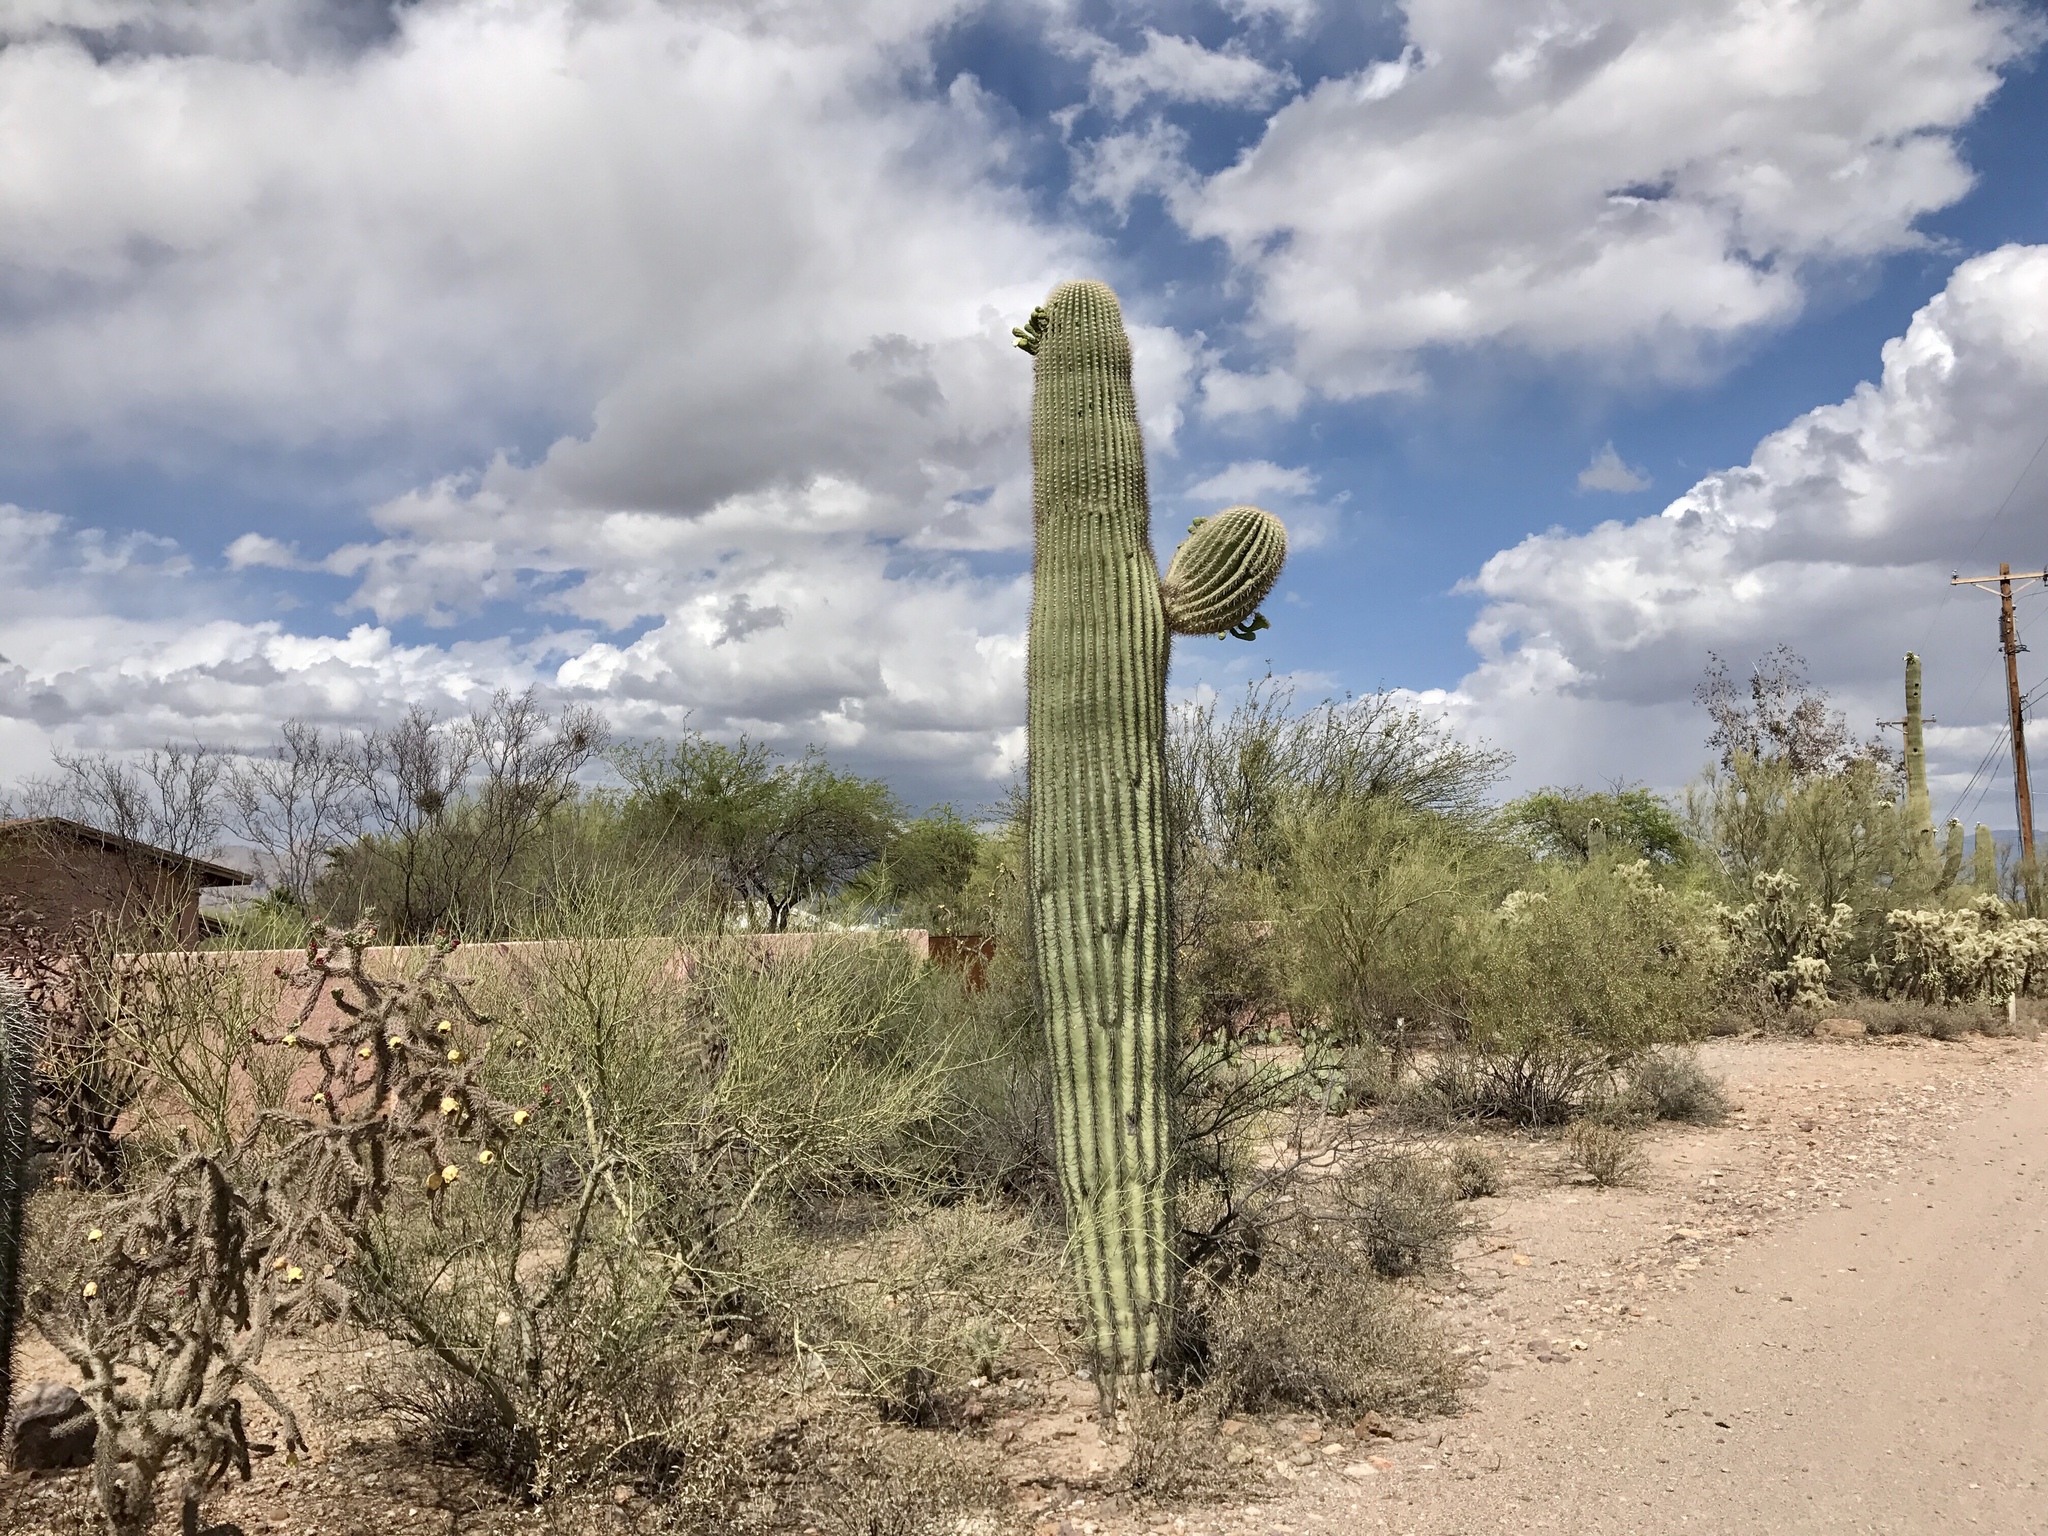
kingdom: Plantae
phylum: Tracheophyta
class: Magnoliopsida
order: Caryophyllales
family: Cactaceae
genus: Carnegiea
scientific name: Carnegiea gigantea
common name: Saguaro
